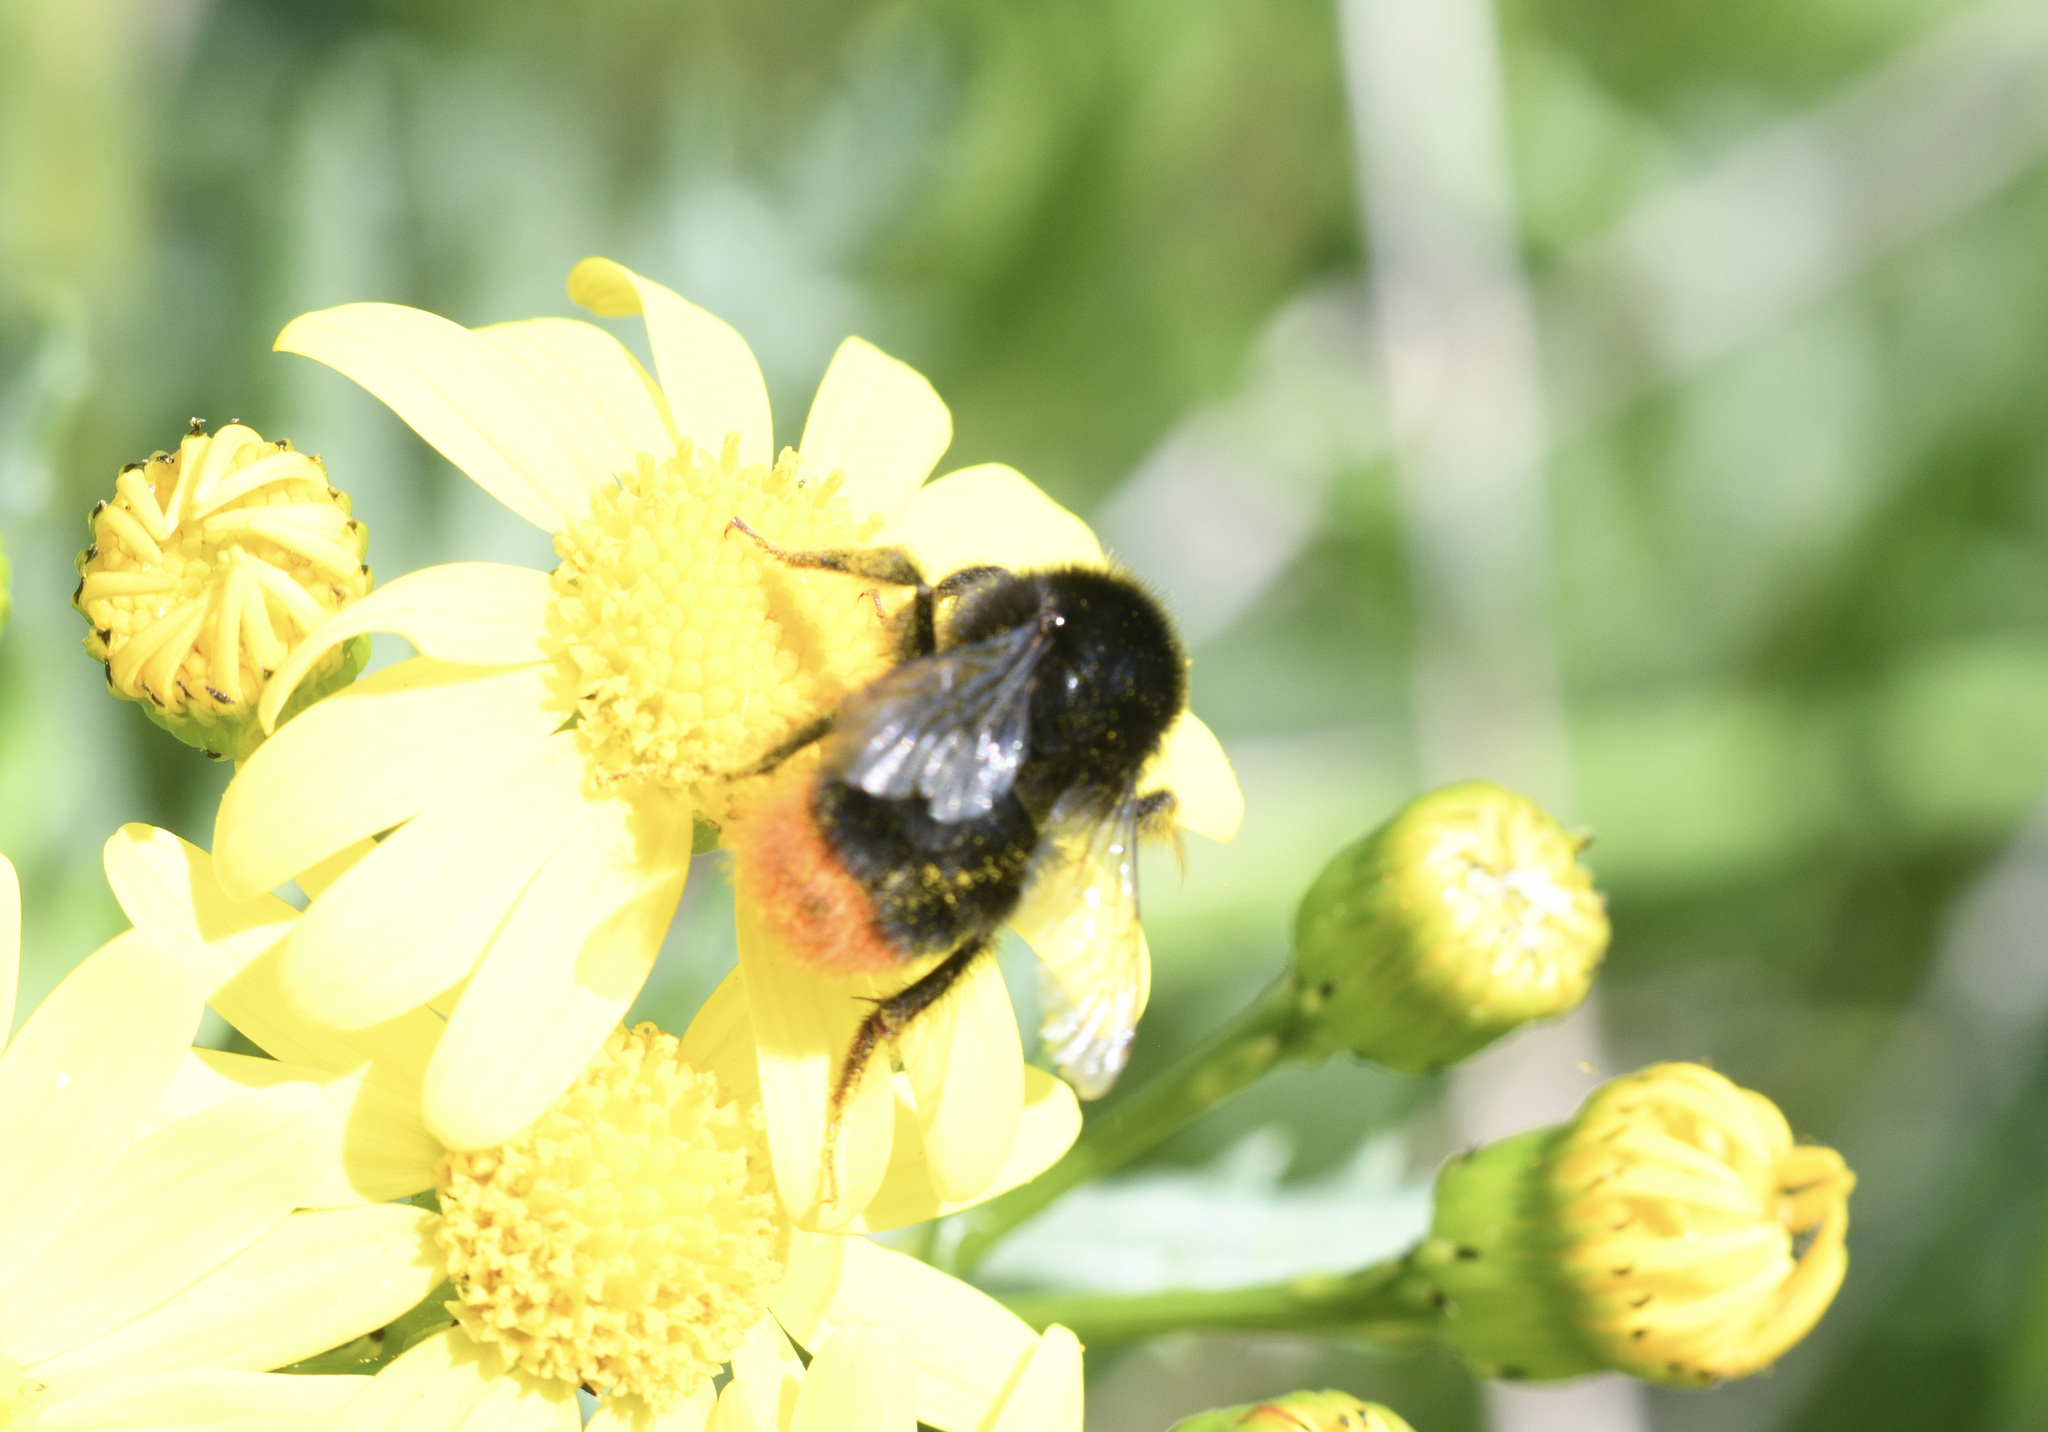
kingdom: Animalia
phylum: Arthropoda
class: Insecta
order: Hymenoptera
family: Apidae
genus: Bombus
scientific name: Bombus lapidarius
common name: Large red-tailed humble-bee
